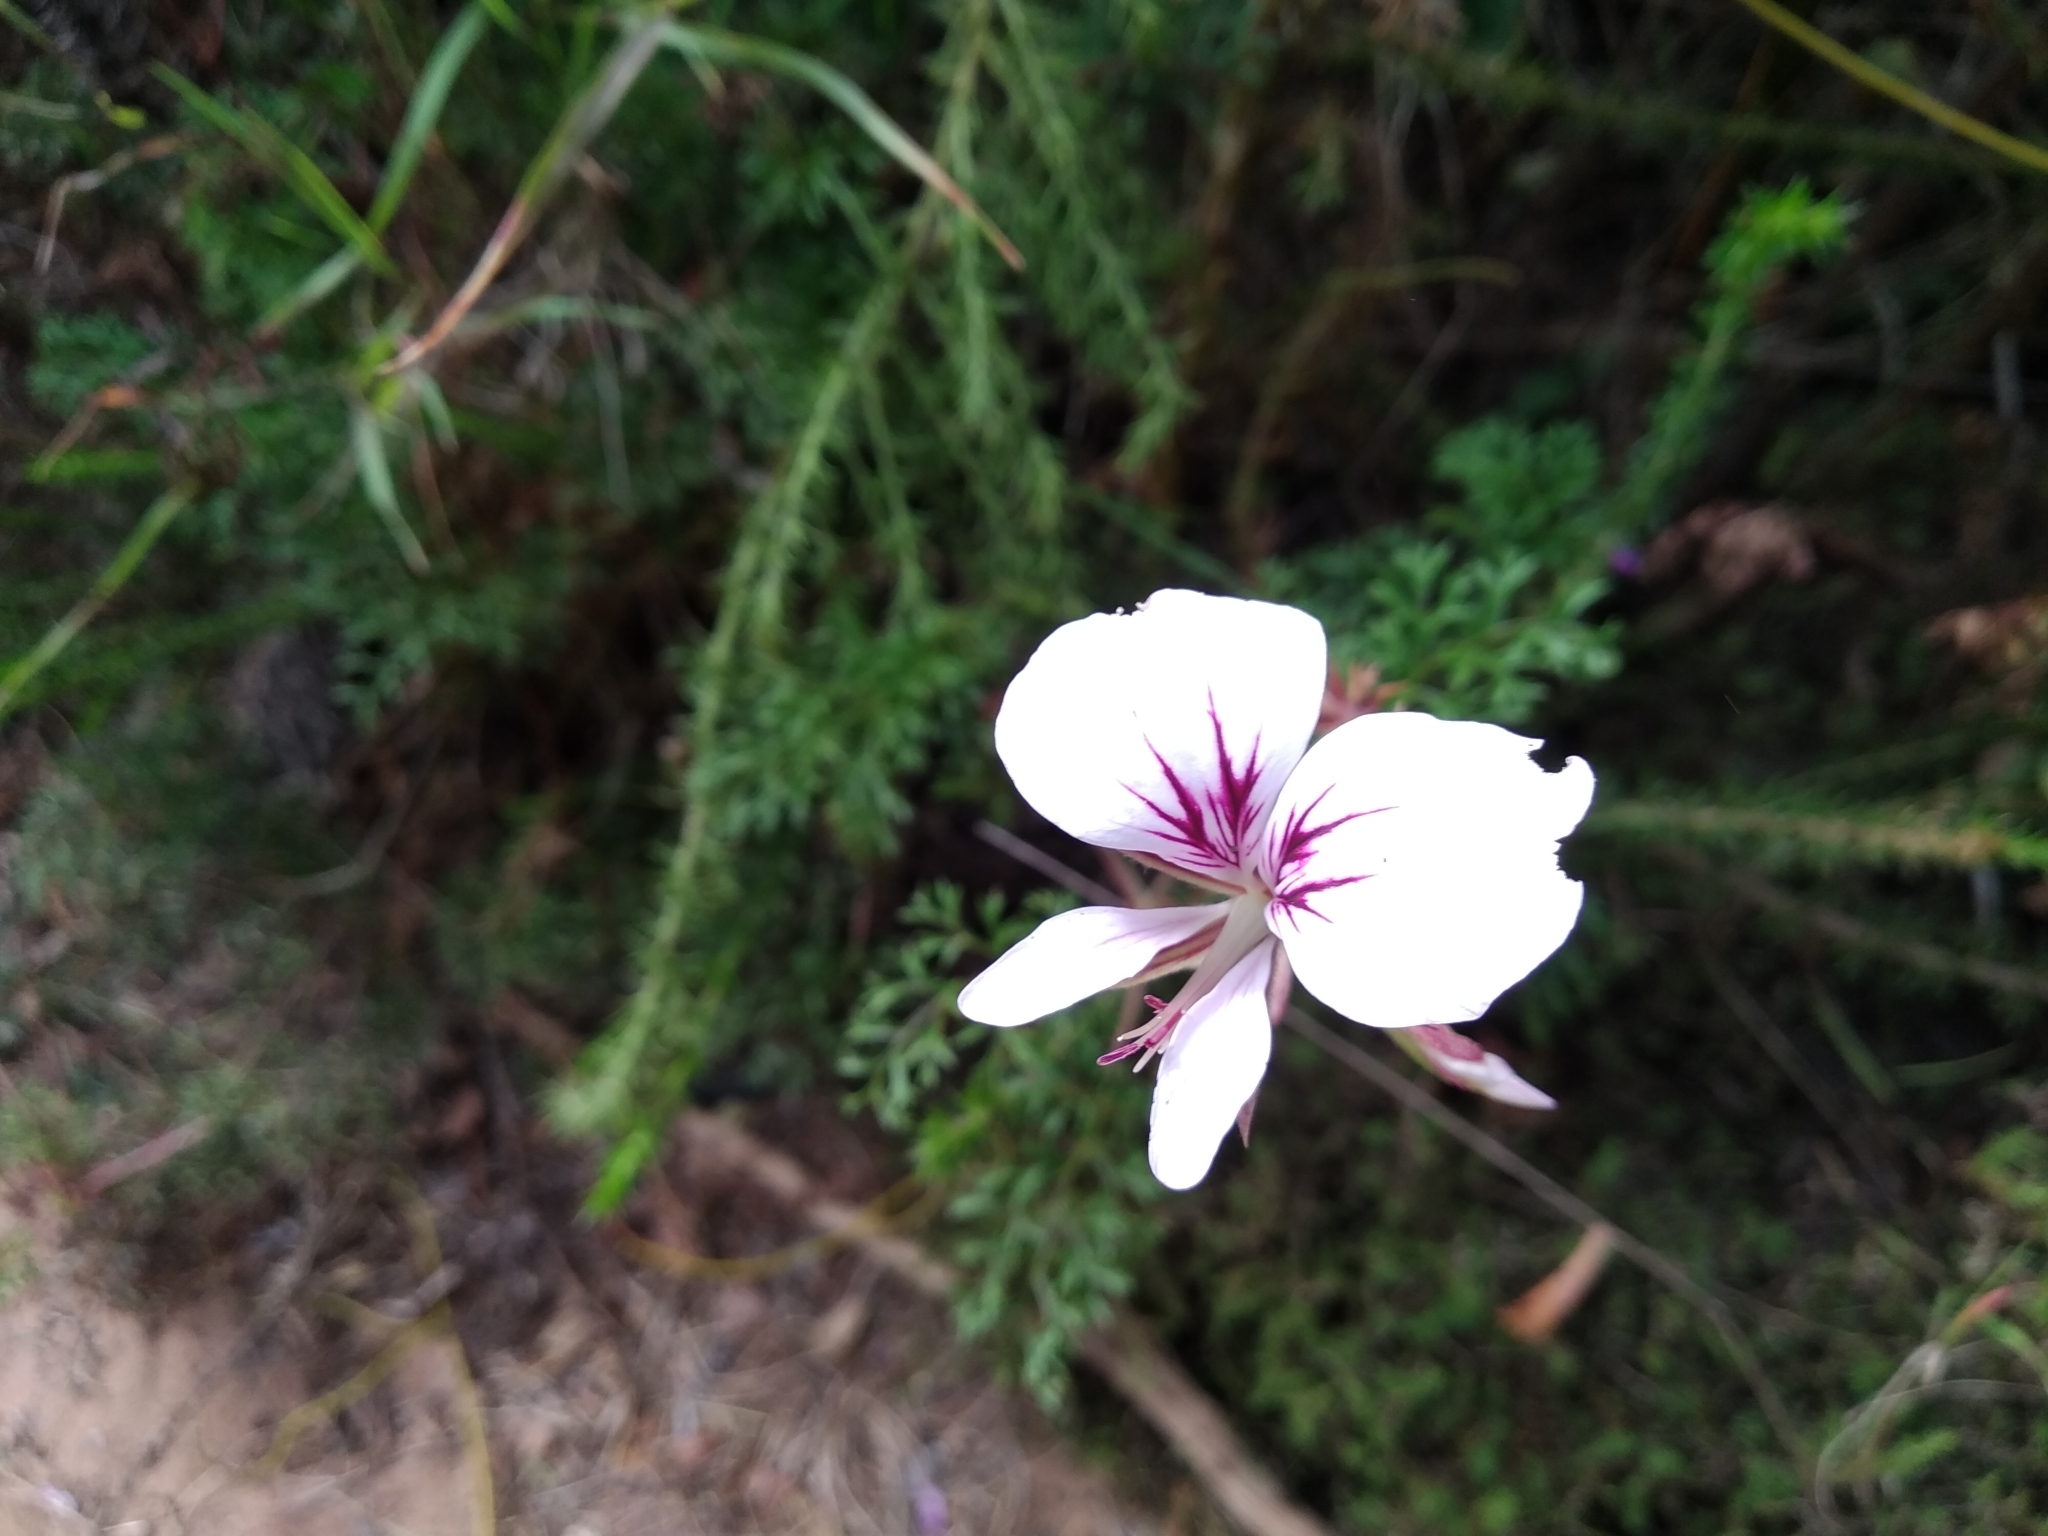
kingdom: Plantae
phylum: Tracheophyta
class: Magnoliopsida
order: Geraniales
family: Geraniaceae
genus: Pelargonium
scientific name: Pelargonium myrrhifolium
